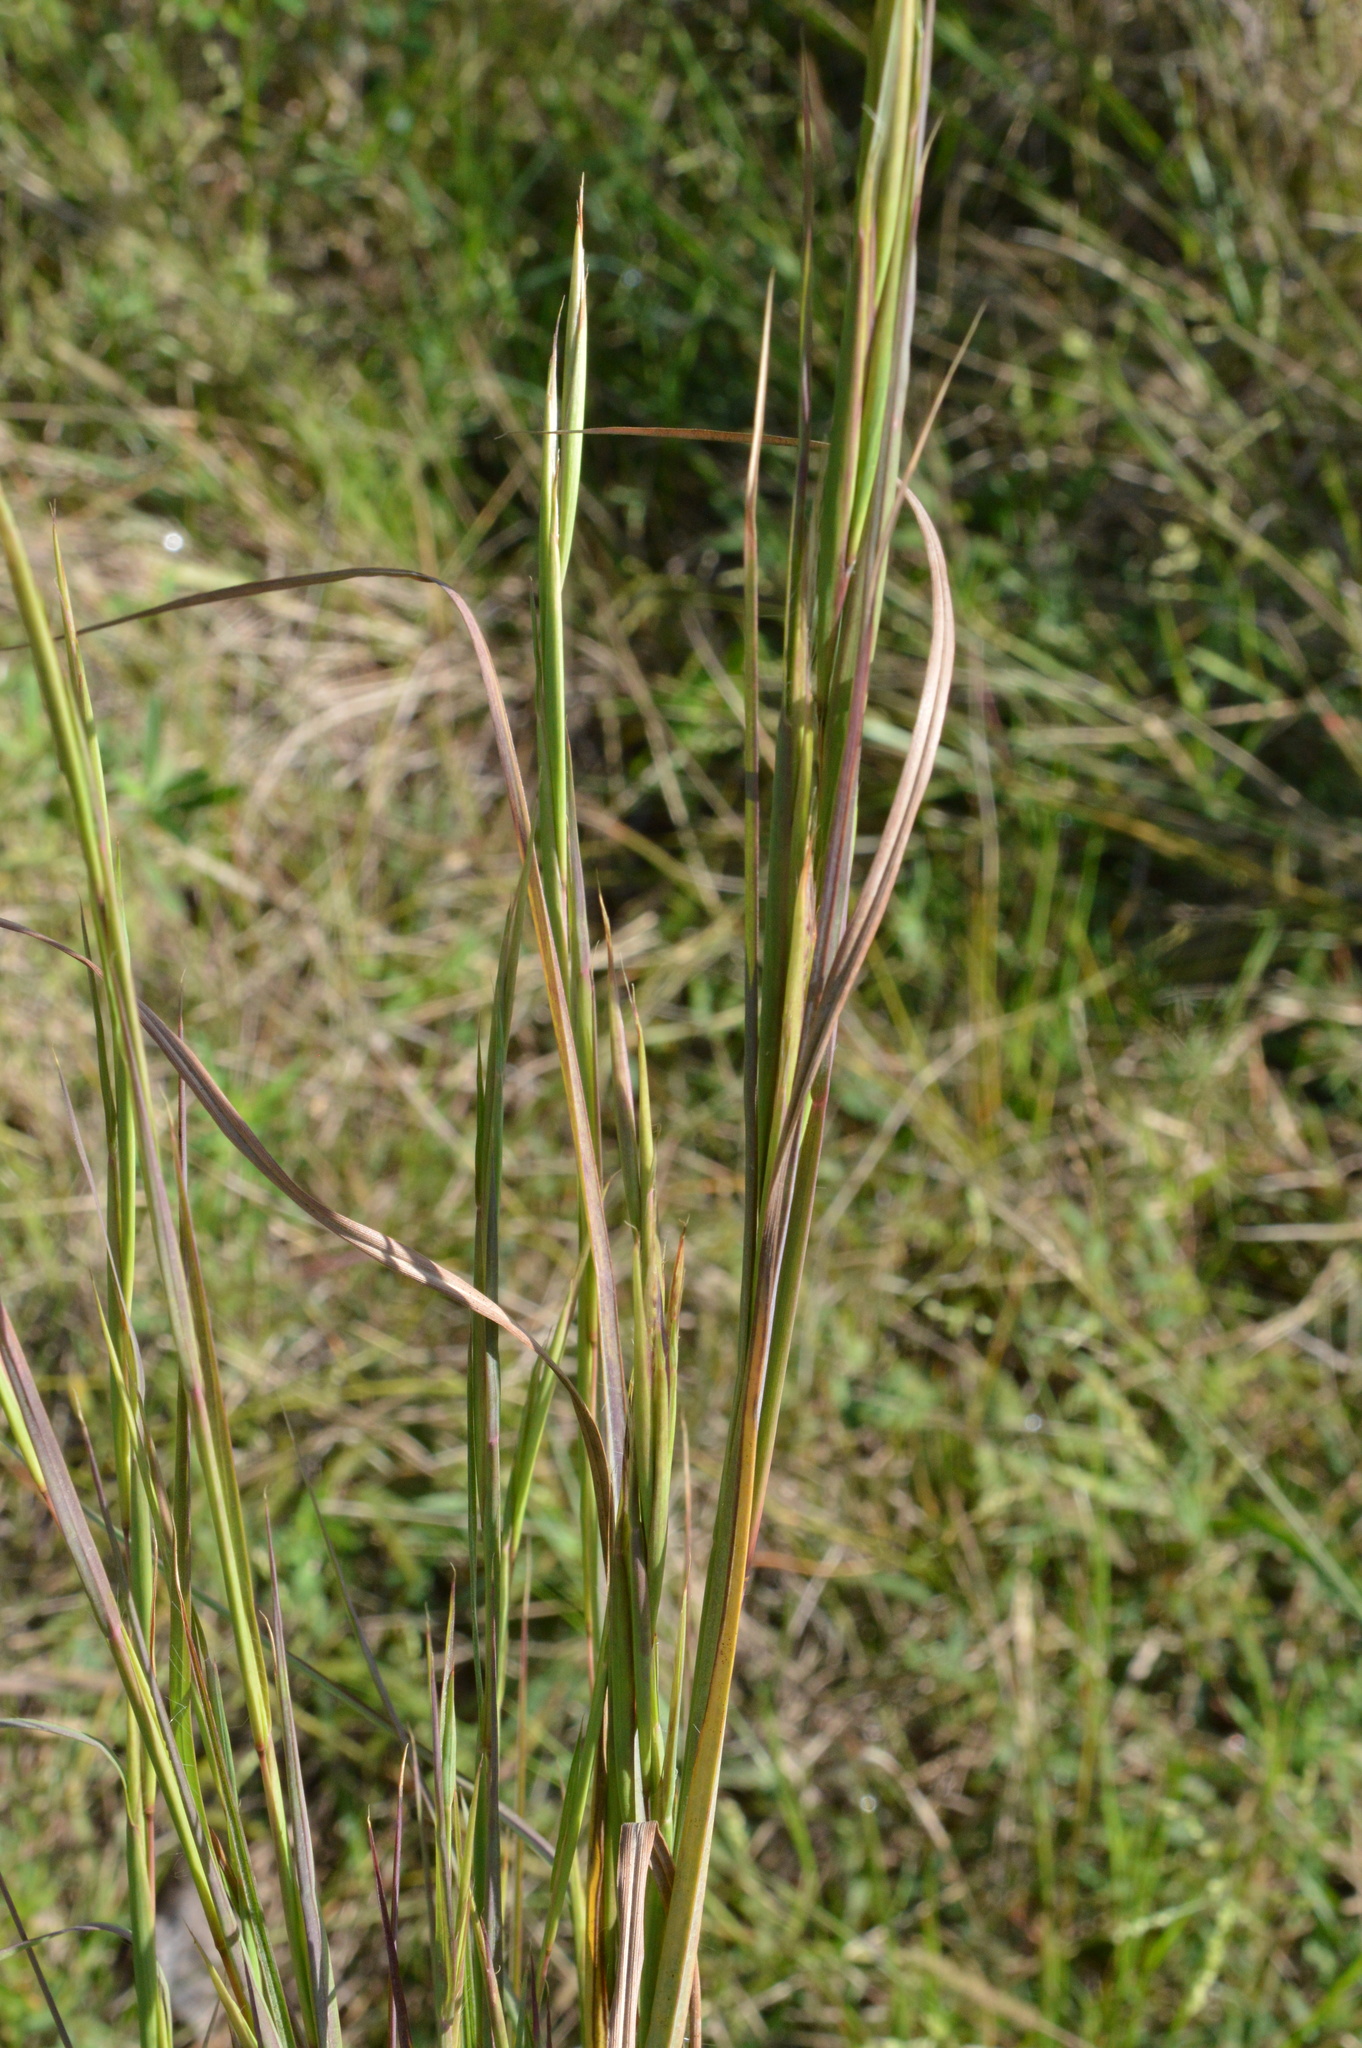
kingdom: Plantae
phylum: Tracheophyta
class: Liliopsida
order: Poales
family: Poaceae
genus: Andropogon
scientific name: Andropogon virginicus
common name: Broomsedge bluestem
